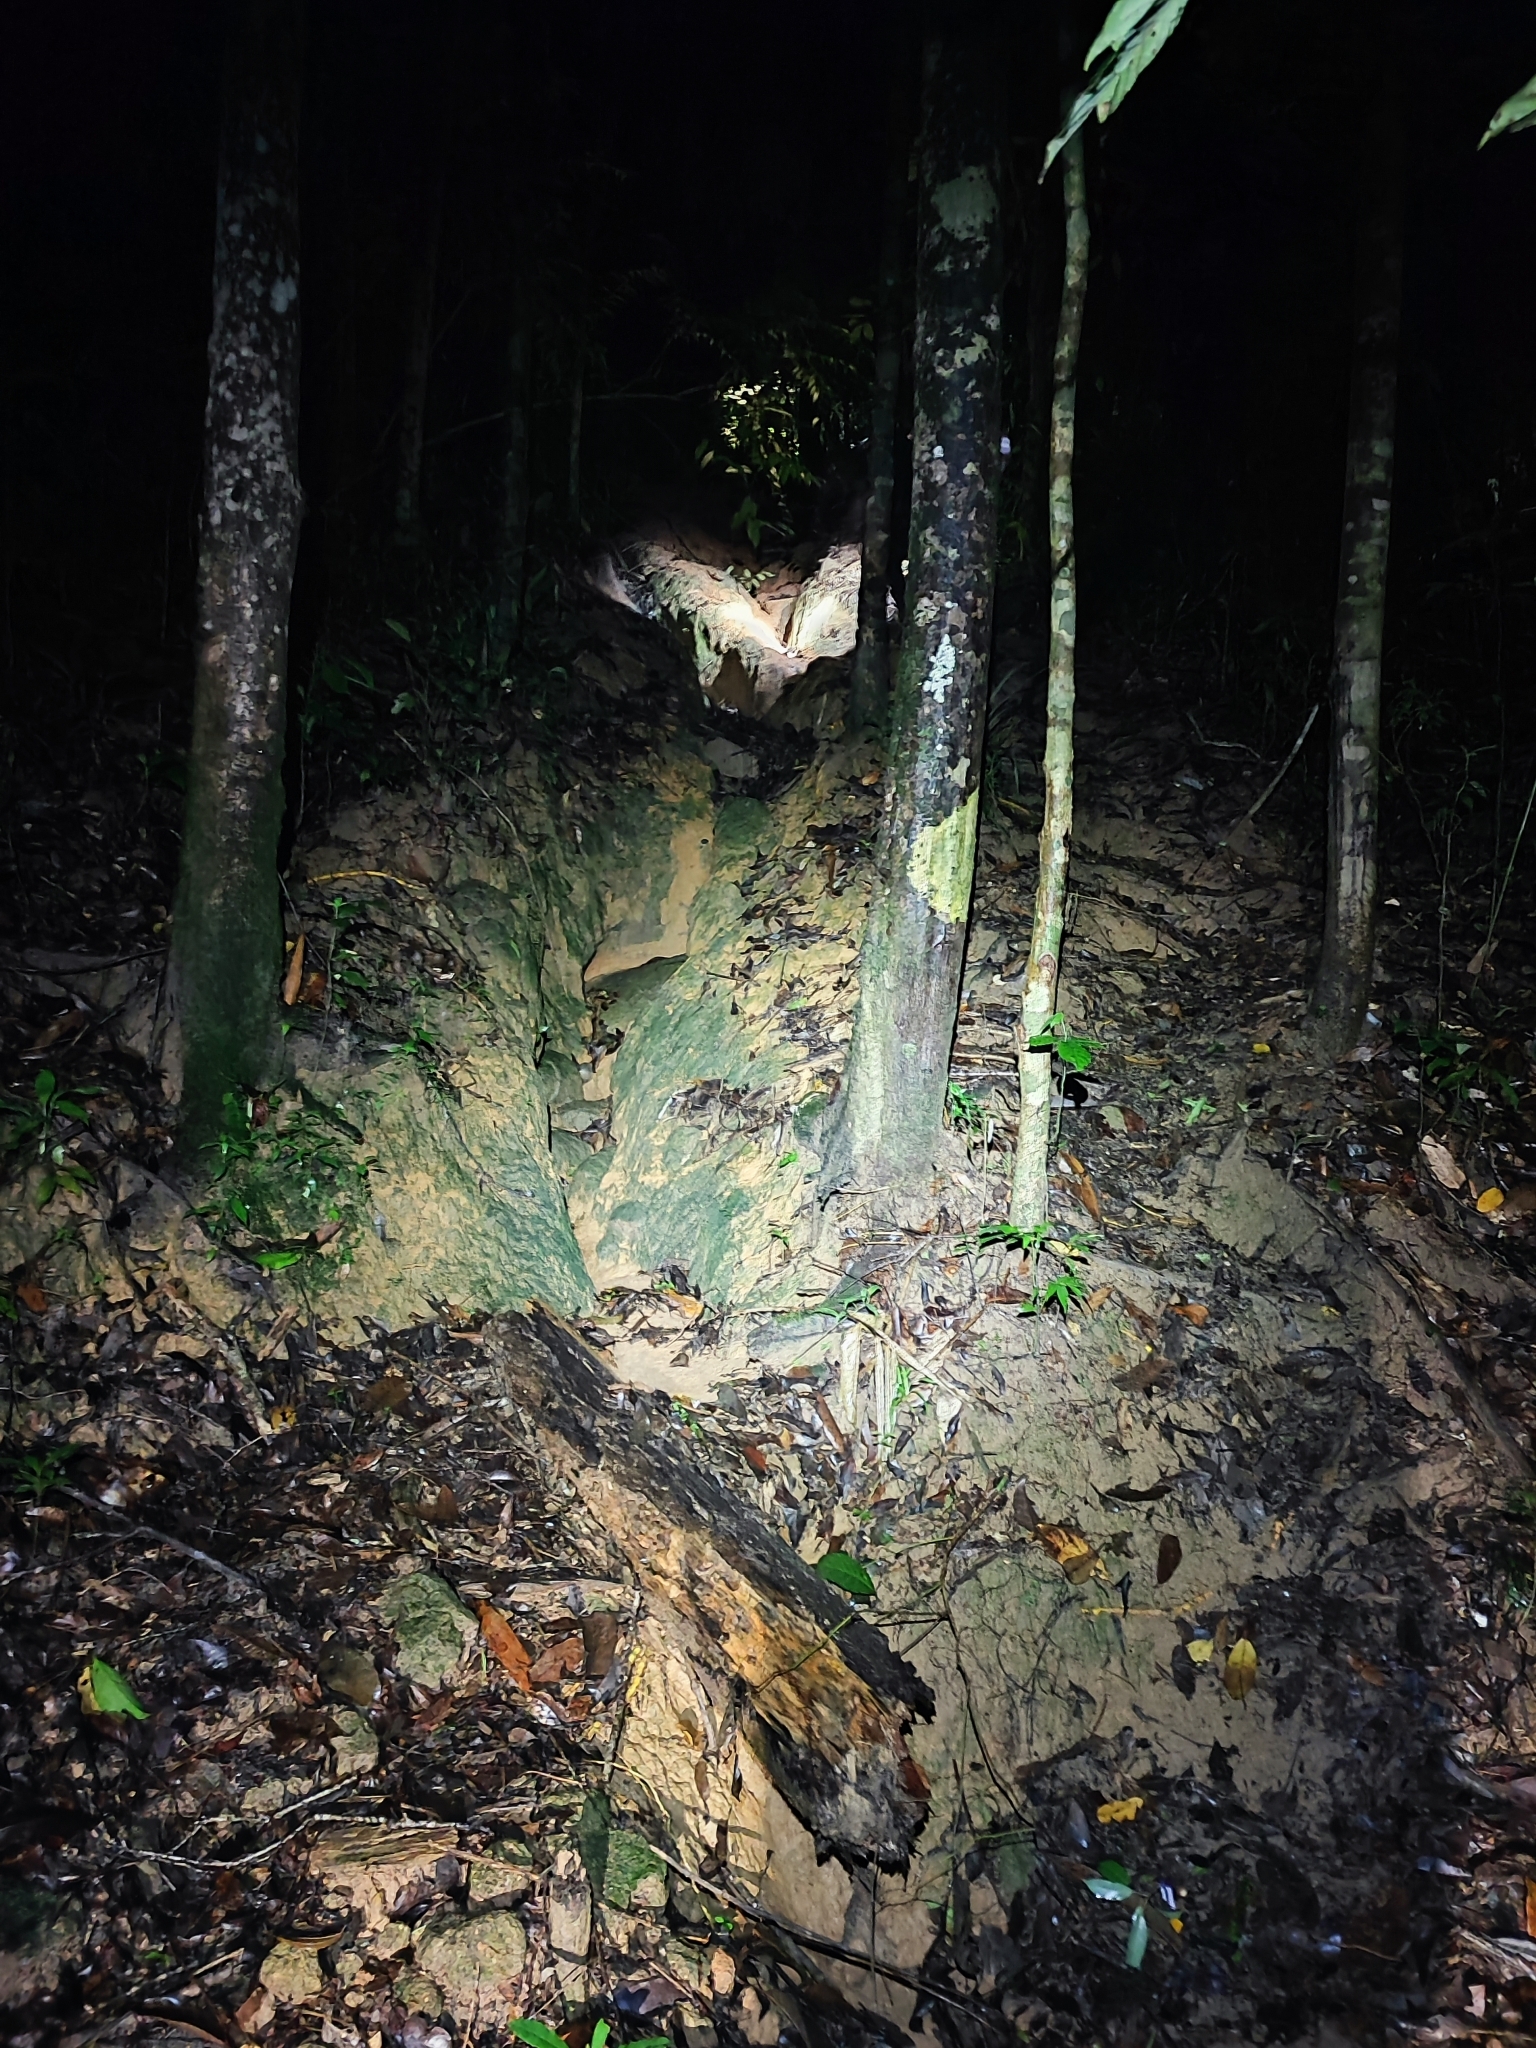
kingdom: Animalia
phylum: Chordata
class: Squamata
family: Gekkonidae
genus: Cyrtodactylus
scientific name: Cyrtodactylus irregularis
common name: Irregular bow-fingered gecko
